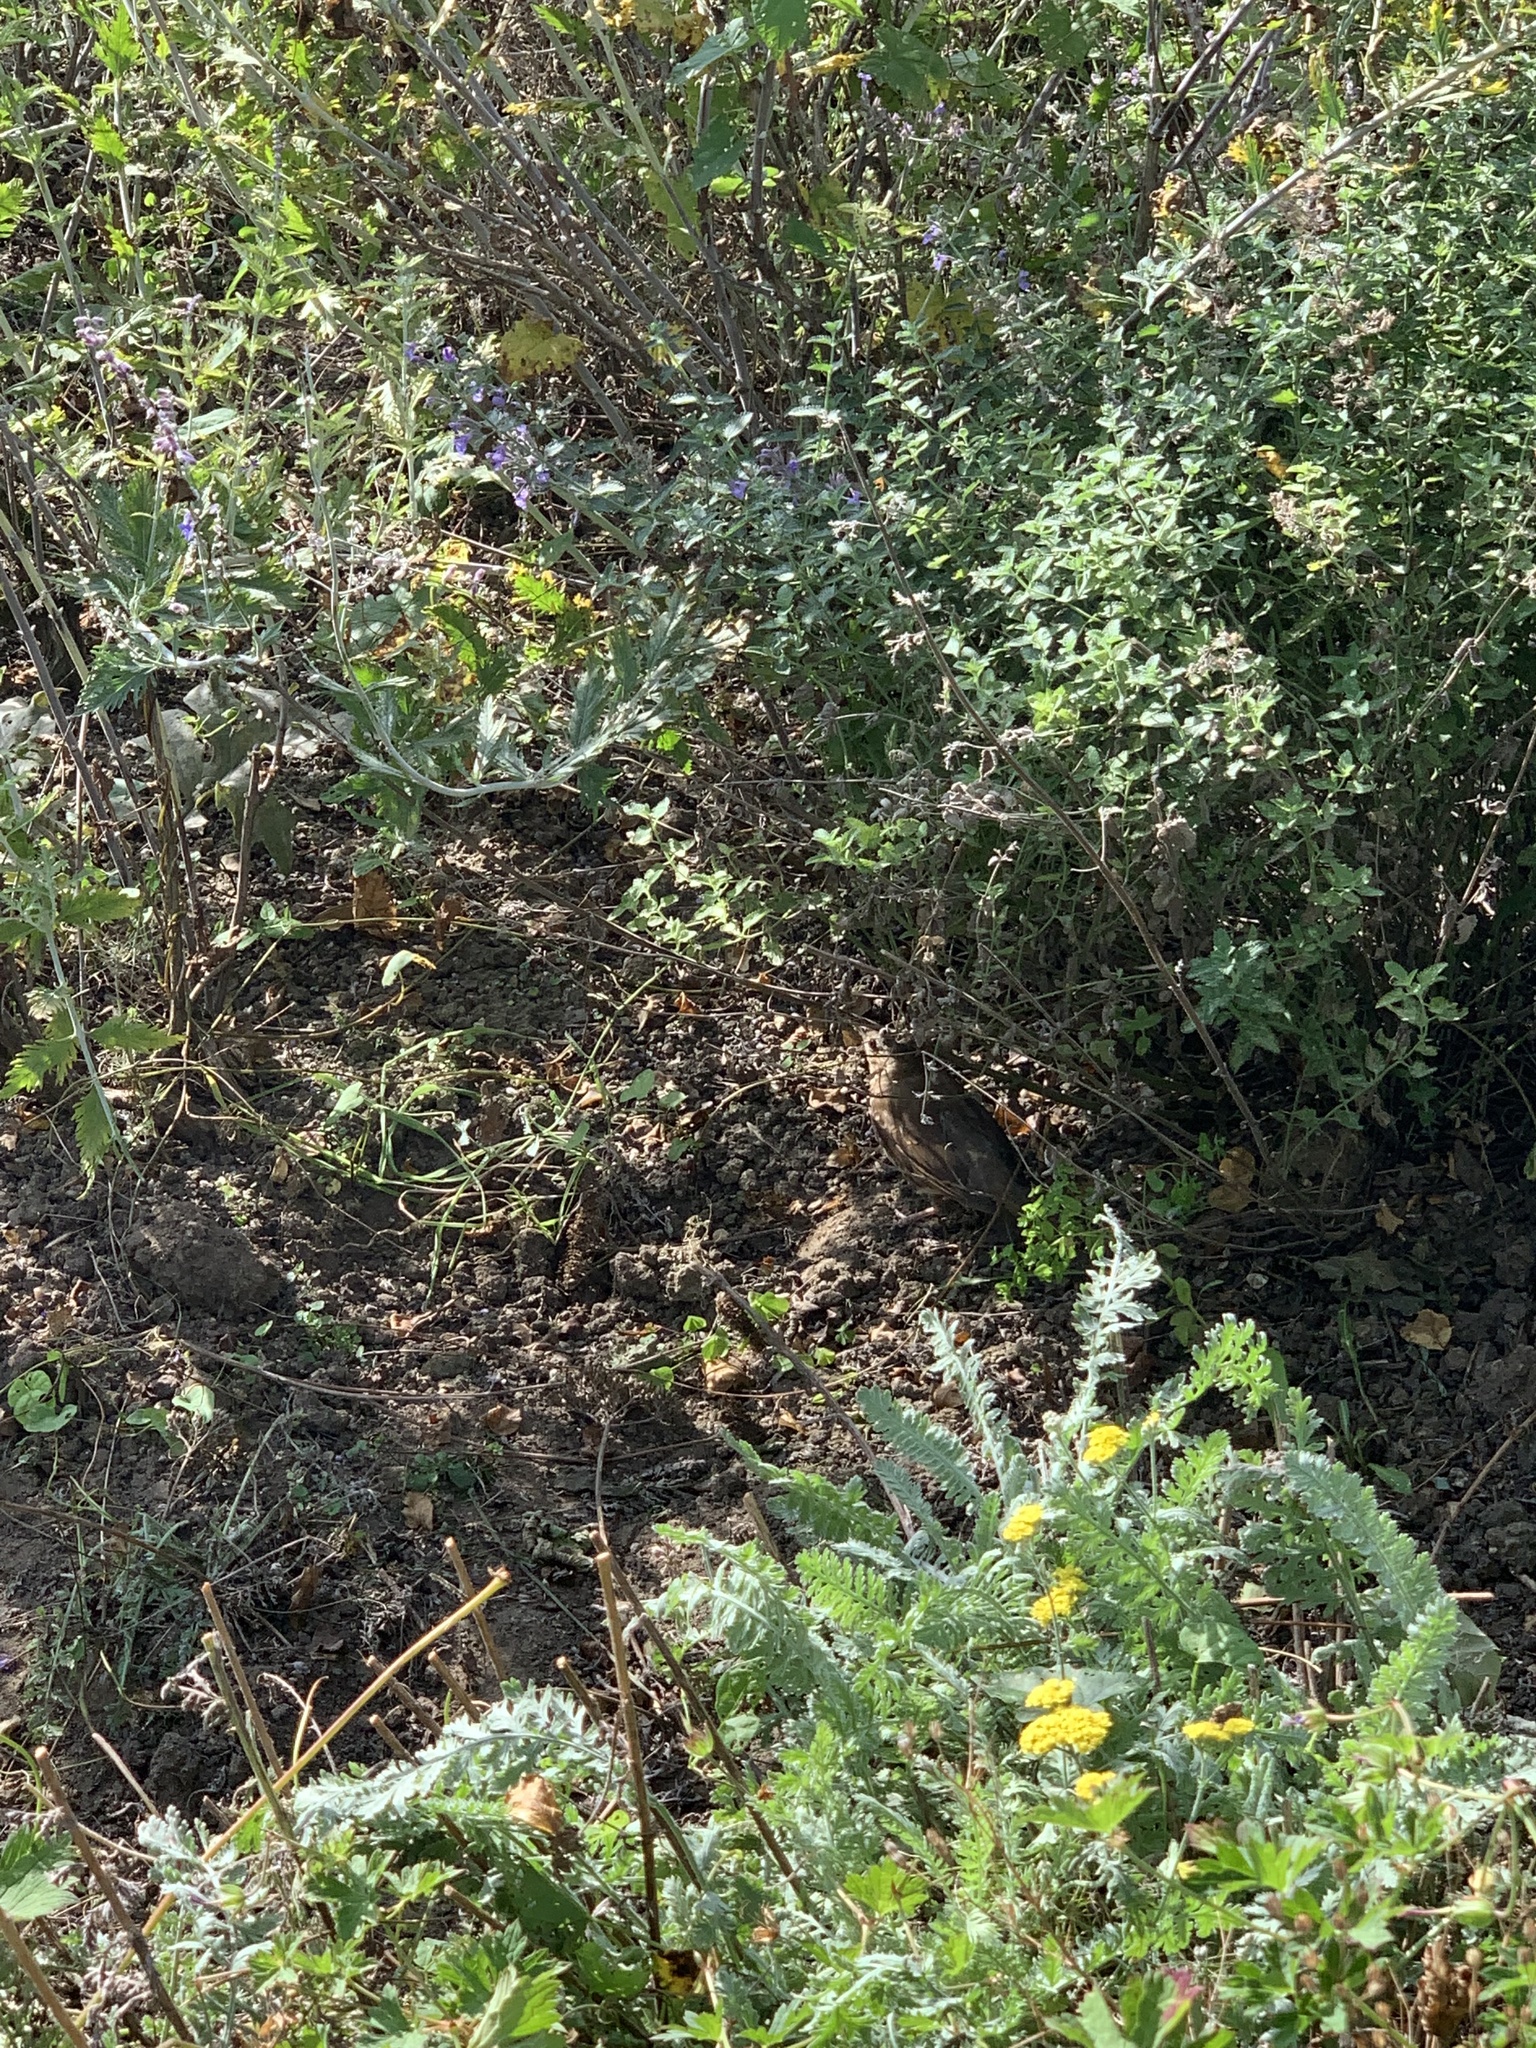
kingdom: Animalia
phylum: Chordata
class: Aves
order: Passeriformes
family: Turdidae
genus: Turdus
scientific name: Turdus philomelos
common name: Song thrush
